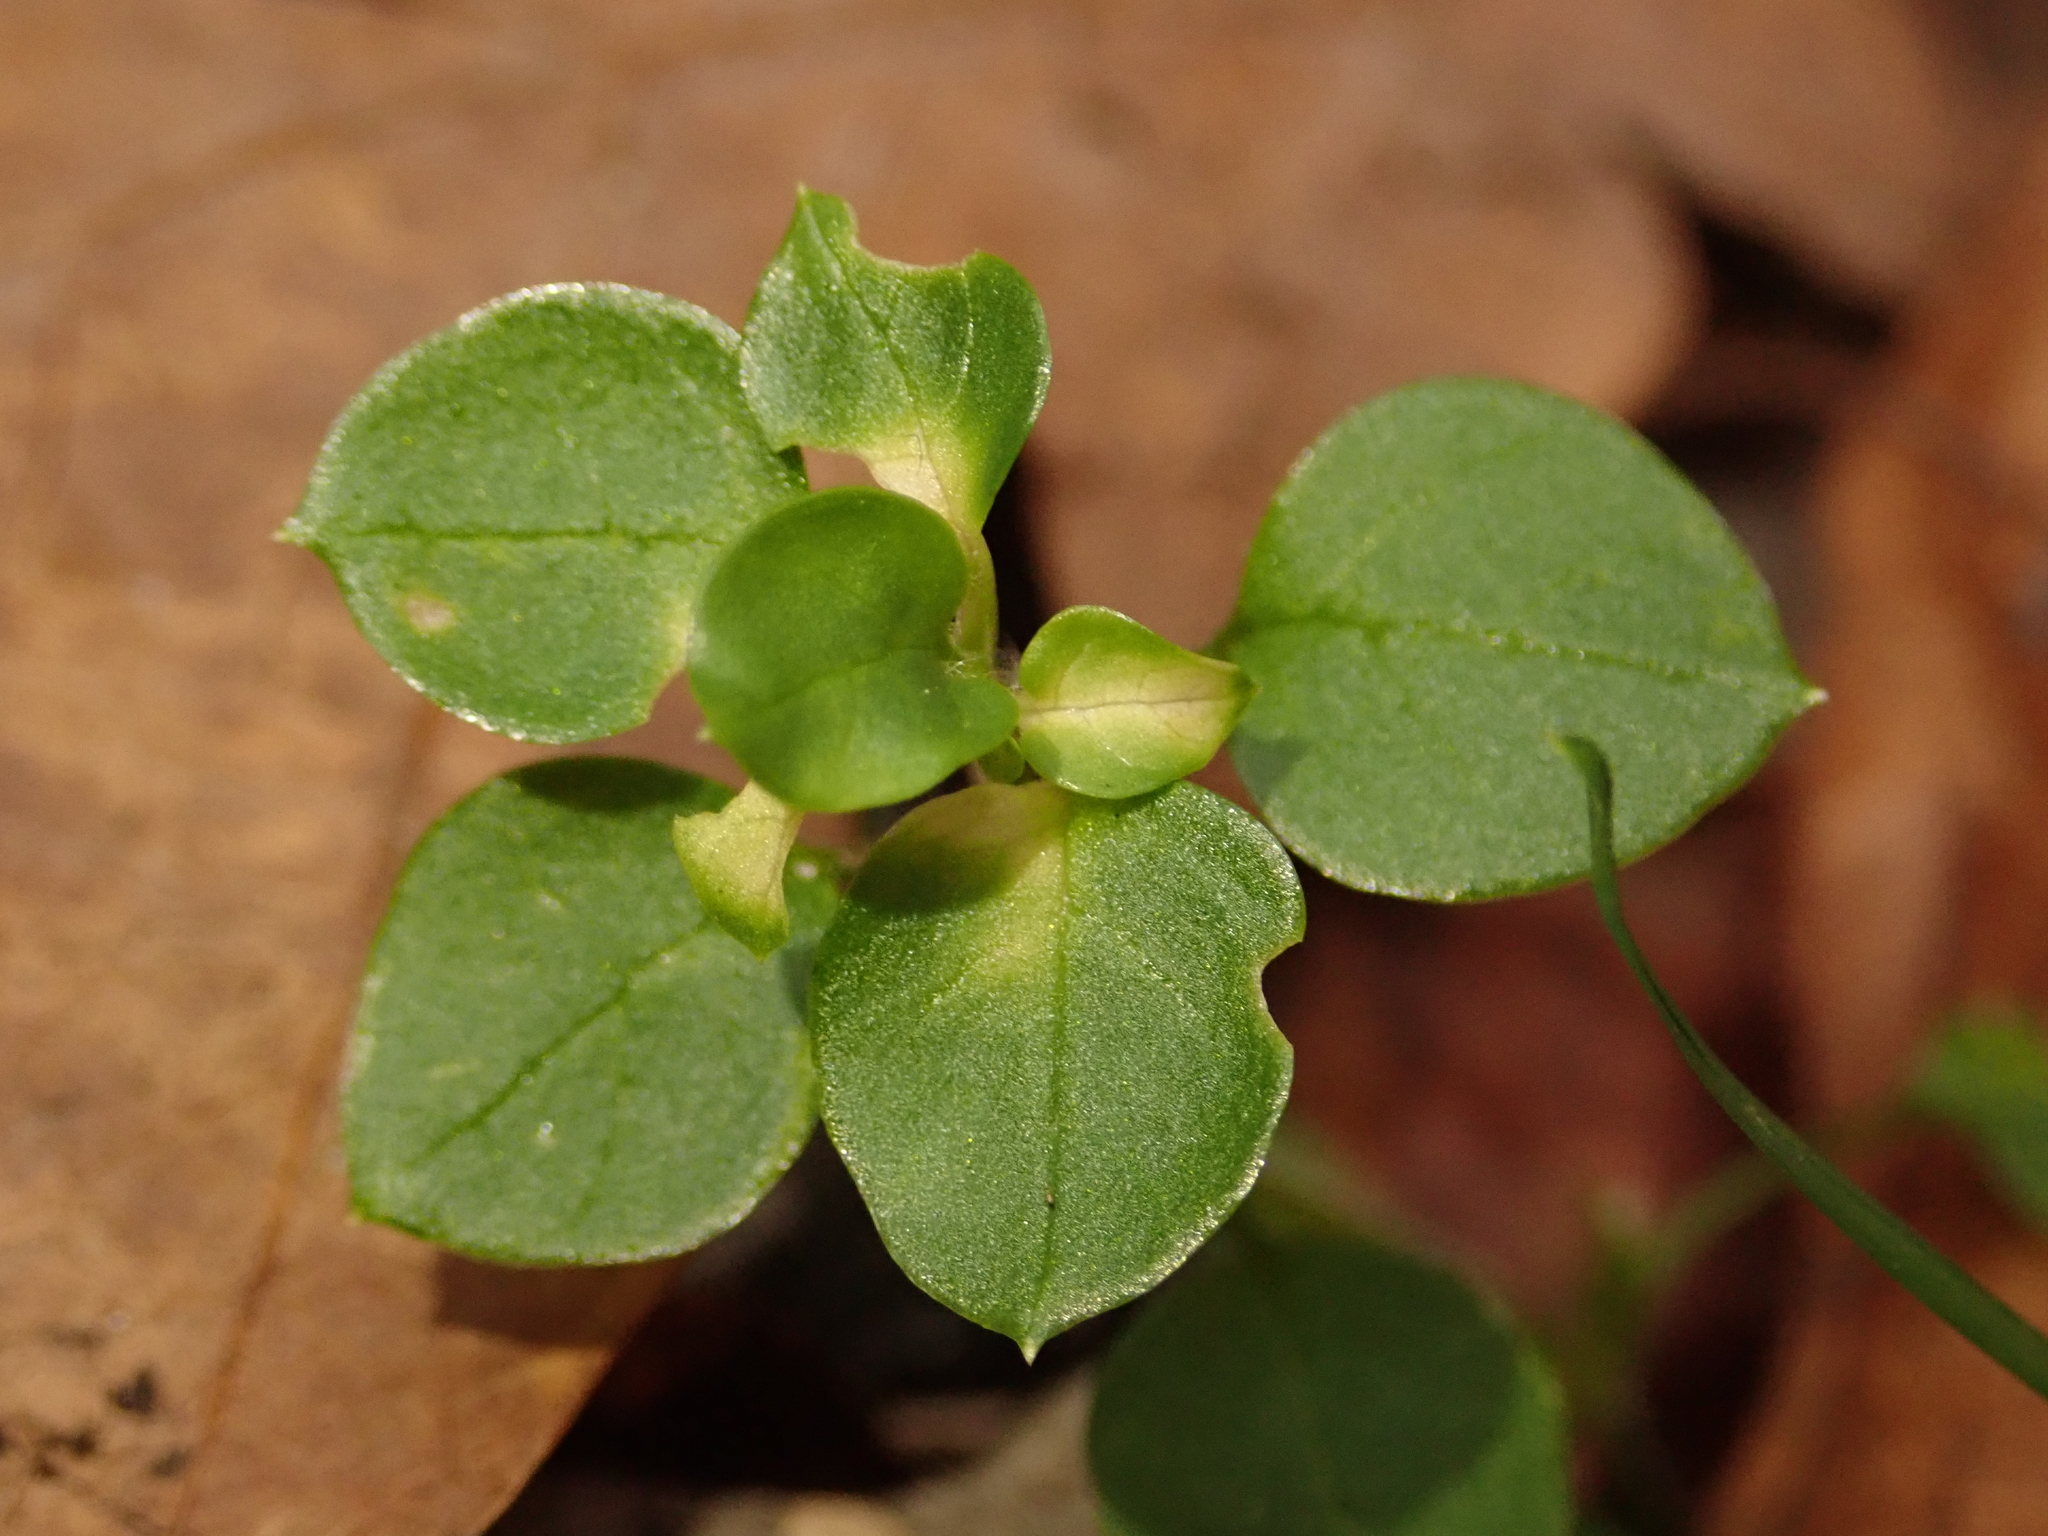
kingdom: Plantae
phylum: Tracheophyta
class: Magnoliopsida
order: Caryophyllales
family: Caryophyllaceae
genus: Stellaria
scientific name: Stellaria media
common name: Common chickweed
